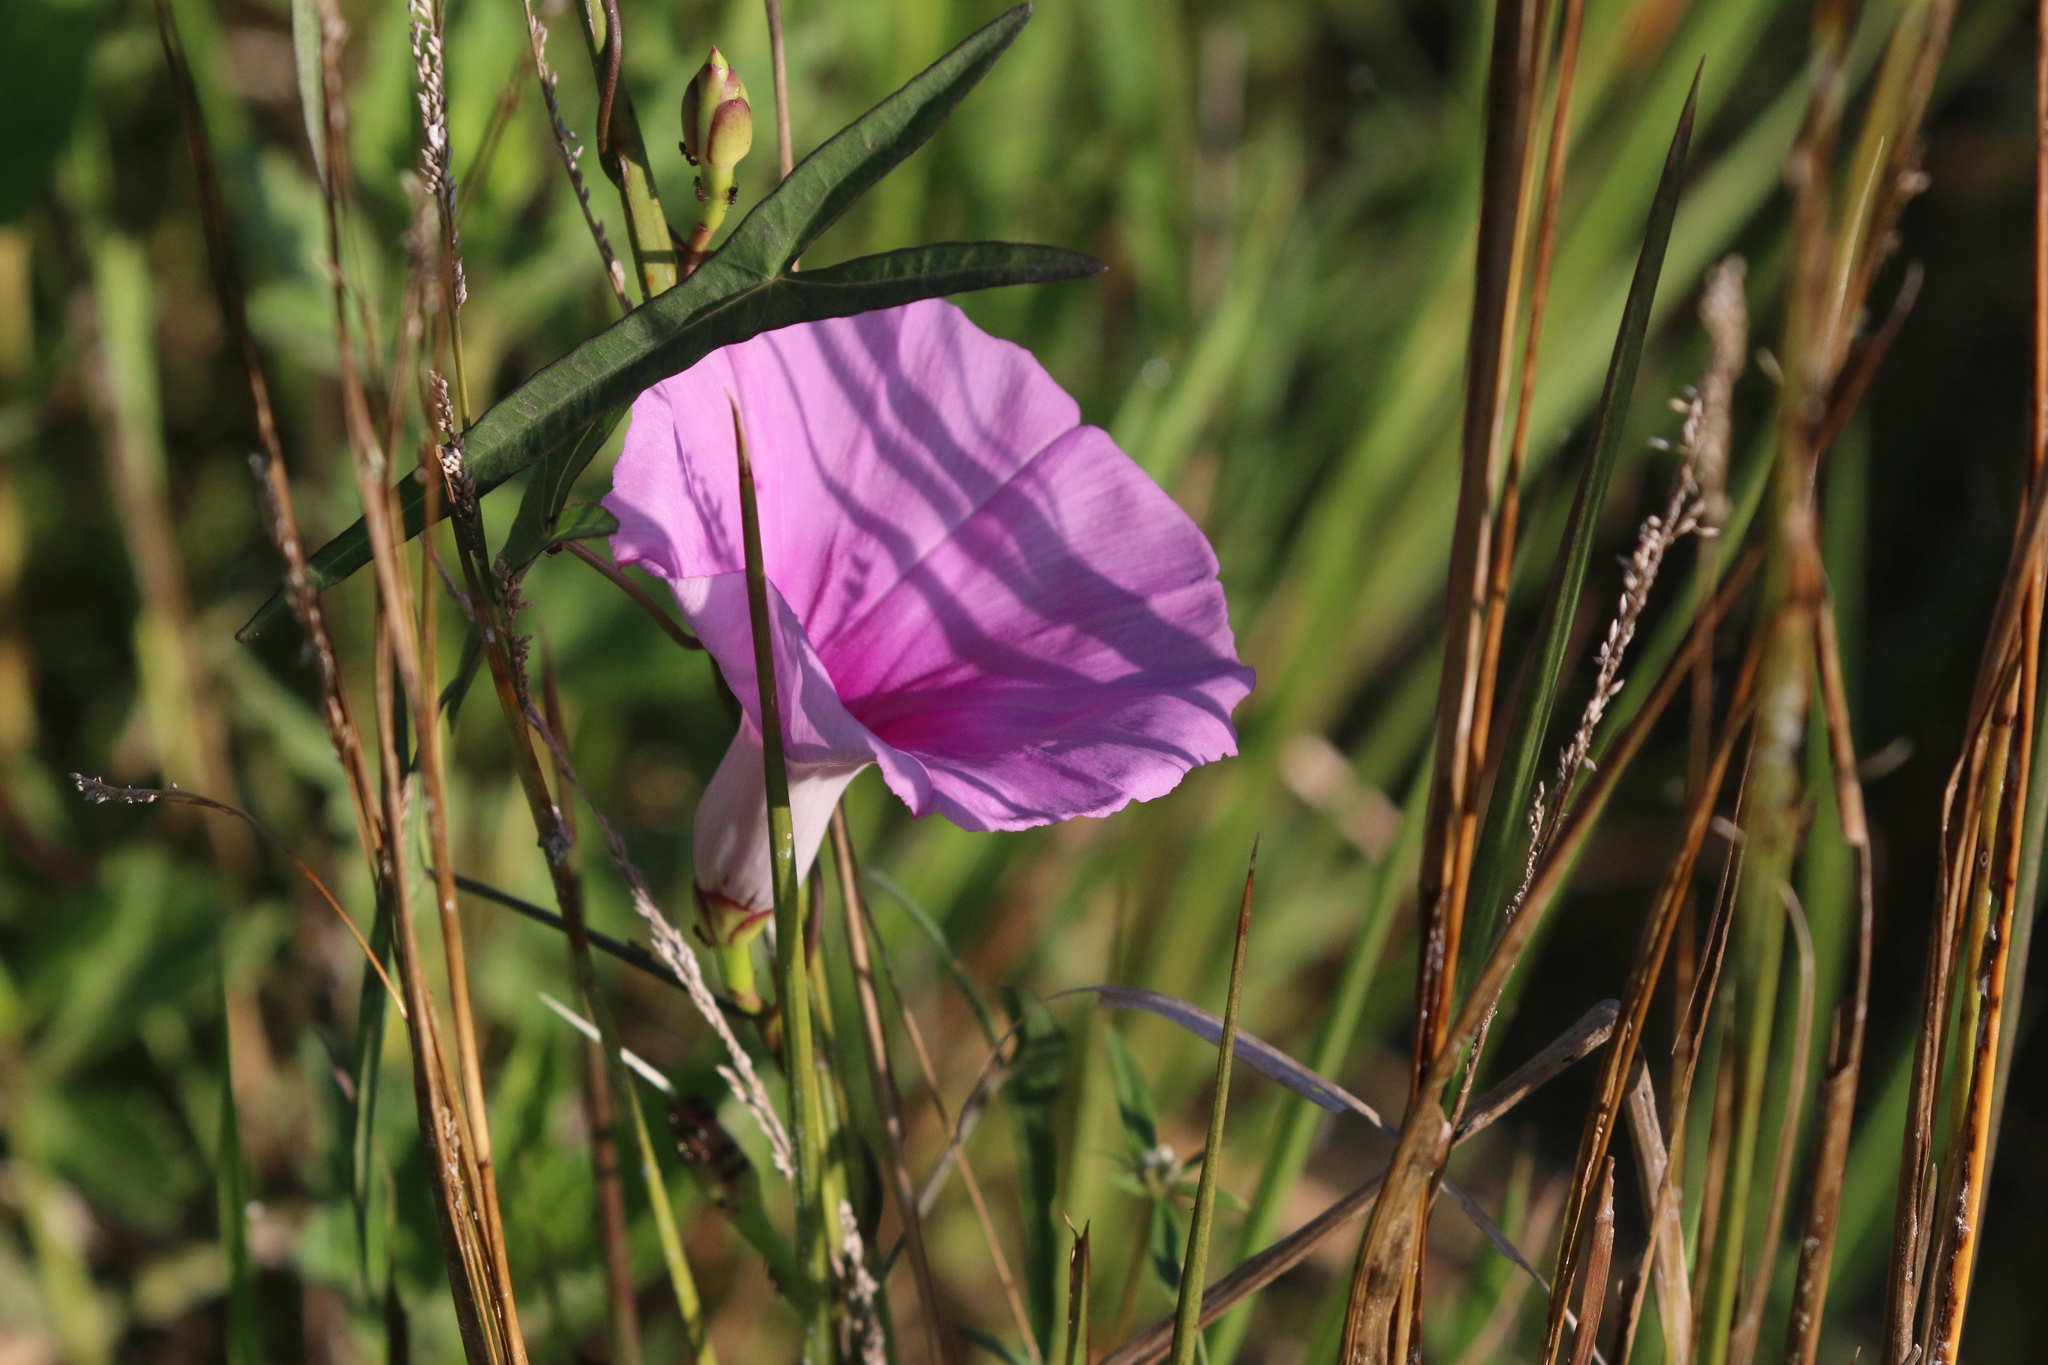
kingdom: Plantae
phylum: Tracheophyta
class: Magnoliopsida
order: Solanales
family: Convolvulaceae
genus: Ipomoea
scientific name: Ipomoea sagittata
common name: Saltmarsh morning glory
